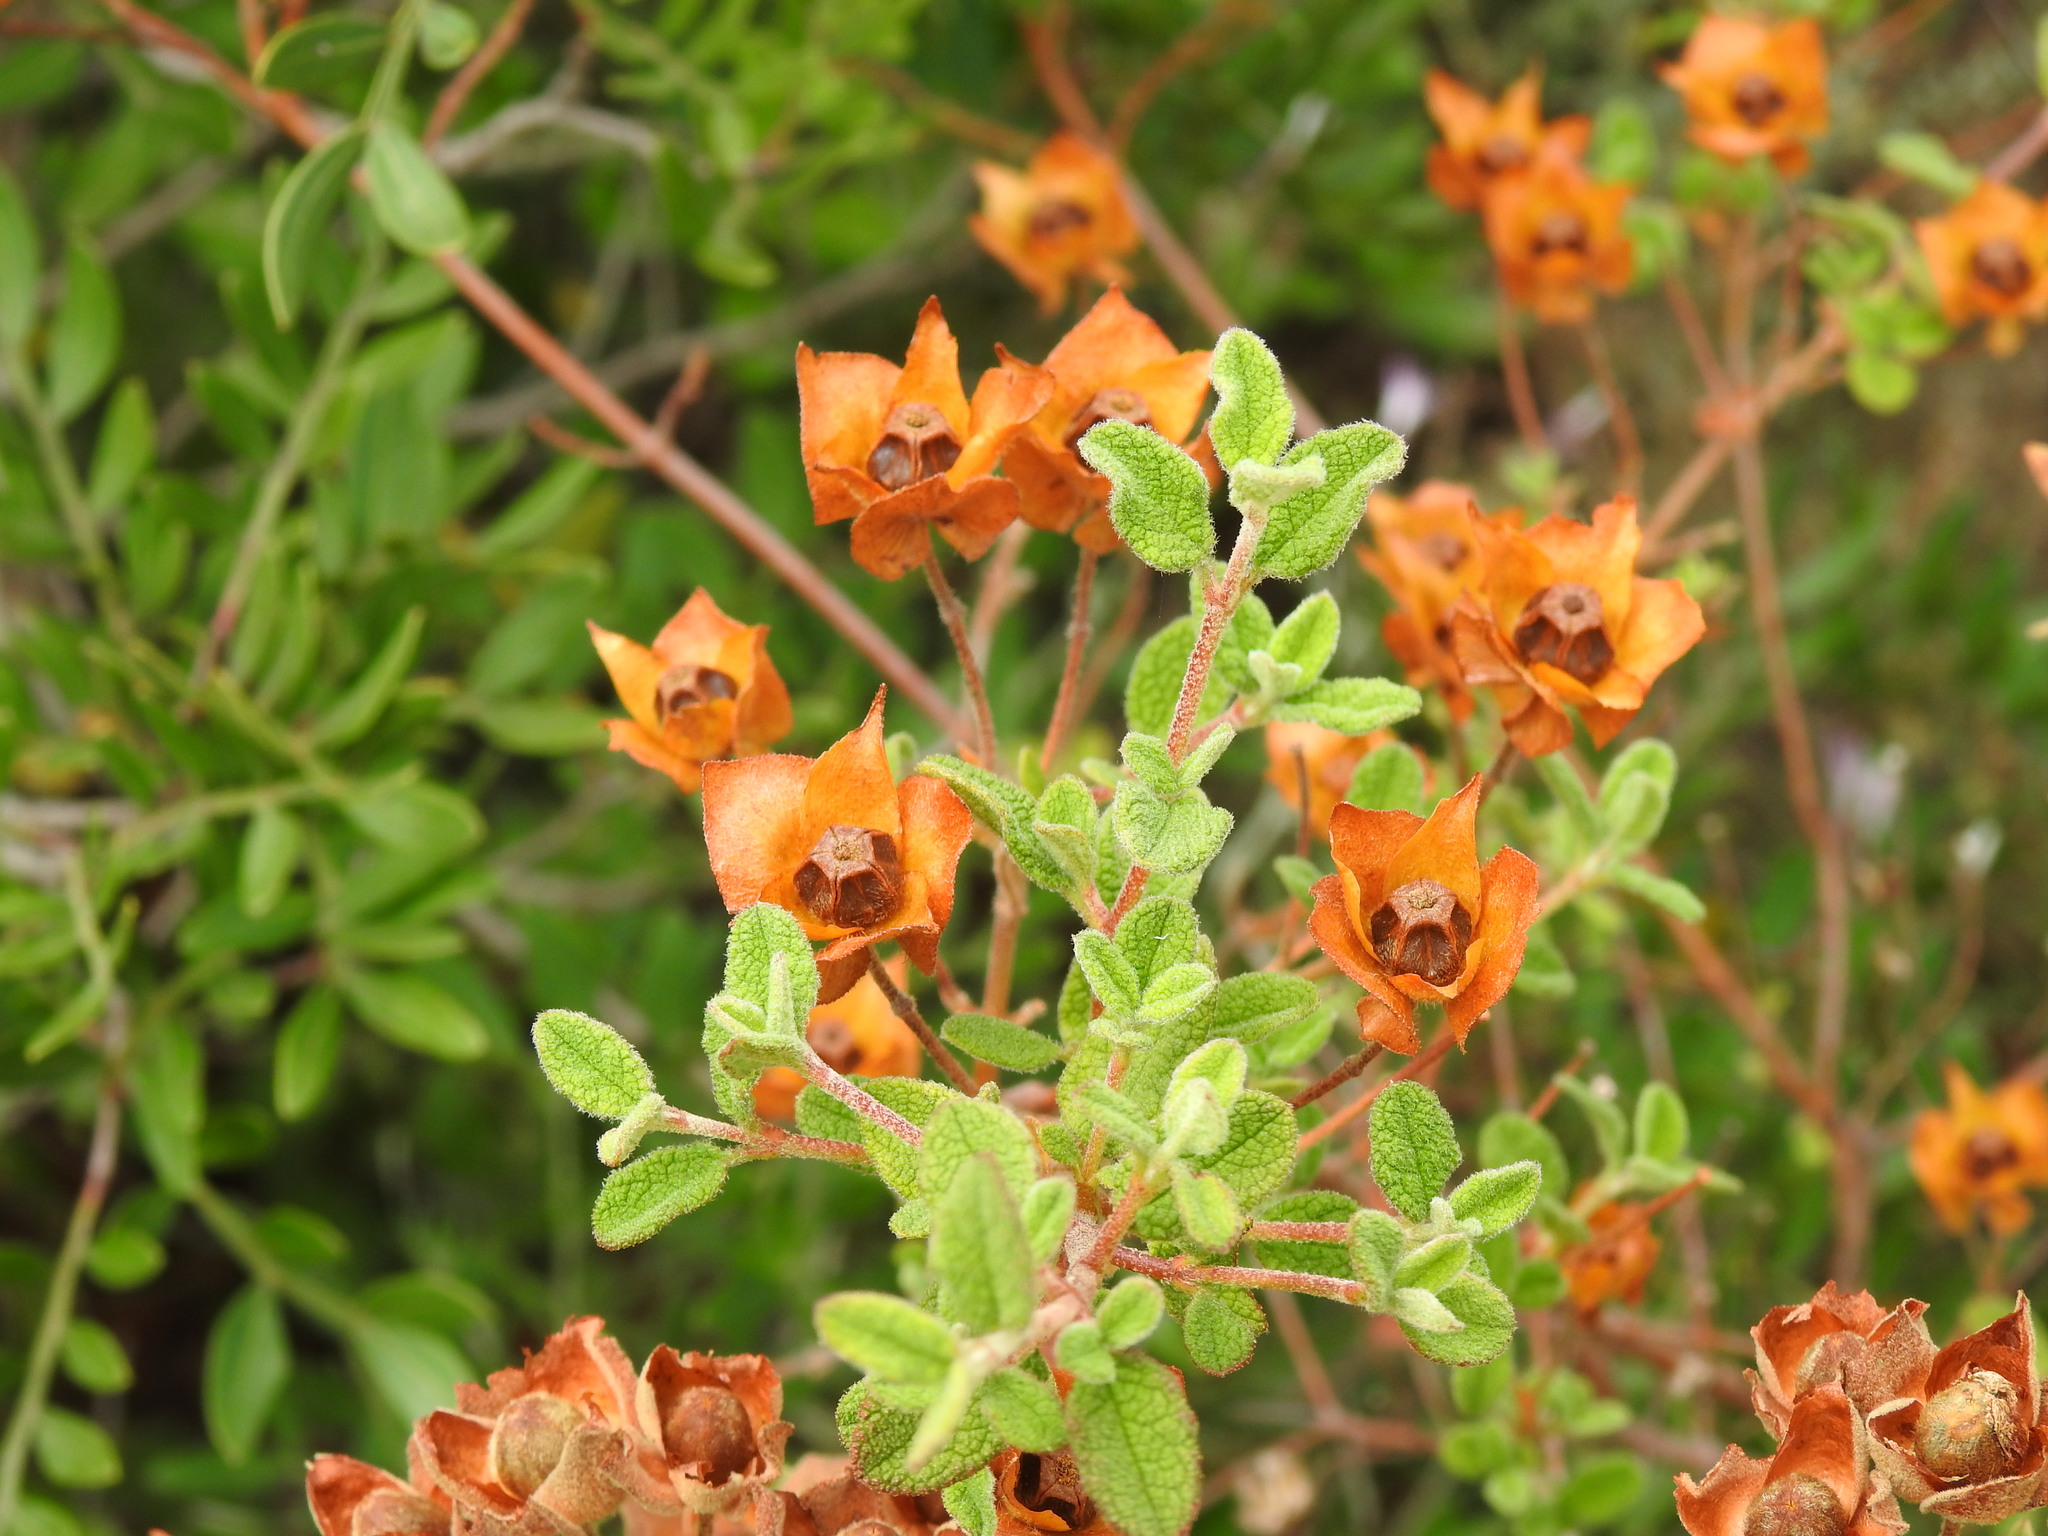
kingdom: Plantae
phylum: Tracheophyta
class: Magnoliopsida
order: Malvales
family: Cistaceae
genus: Cistus
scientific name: Cistus salviifolius
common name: Salvia cistus
